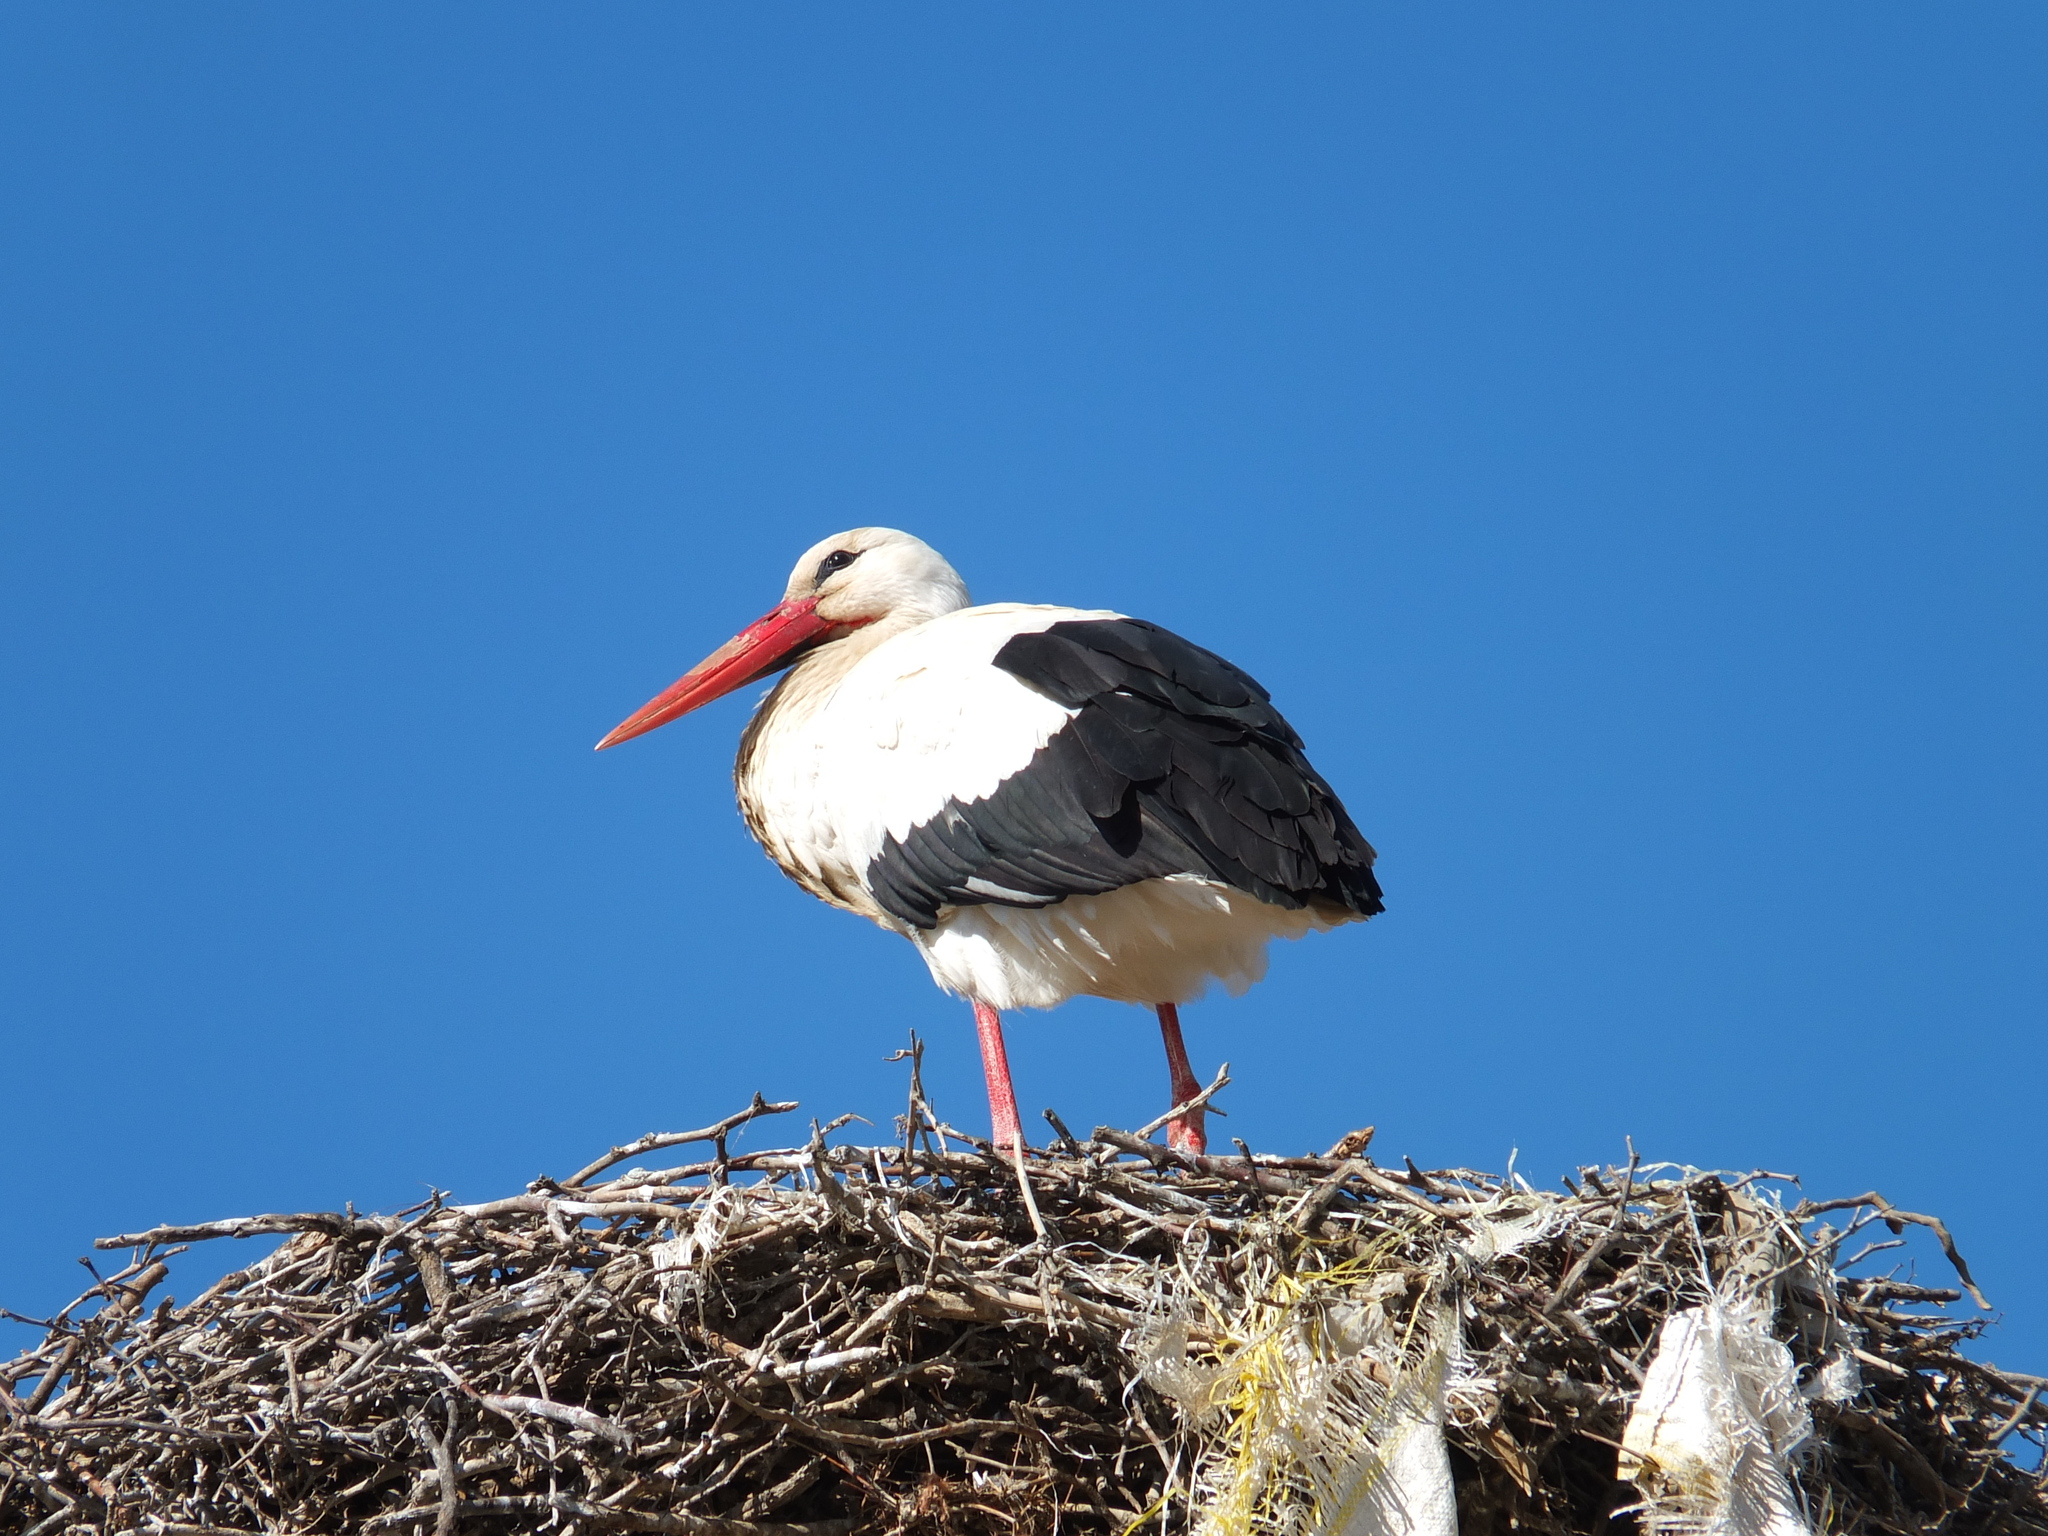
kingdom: Animalia
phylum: Chordata
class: Aves
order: Ciconiiformes
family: Ciconiidae
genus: Ciconia
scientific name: Ciconia ciconia
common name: White stork
